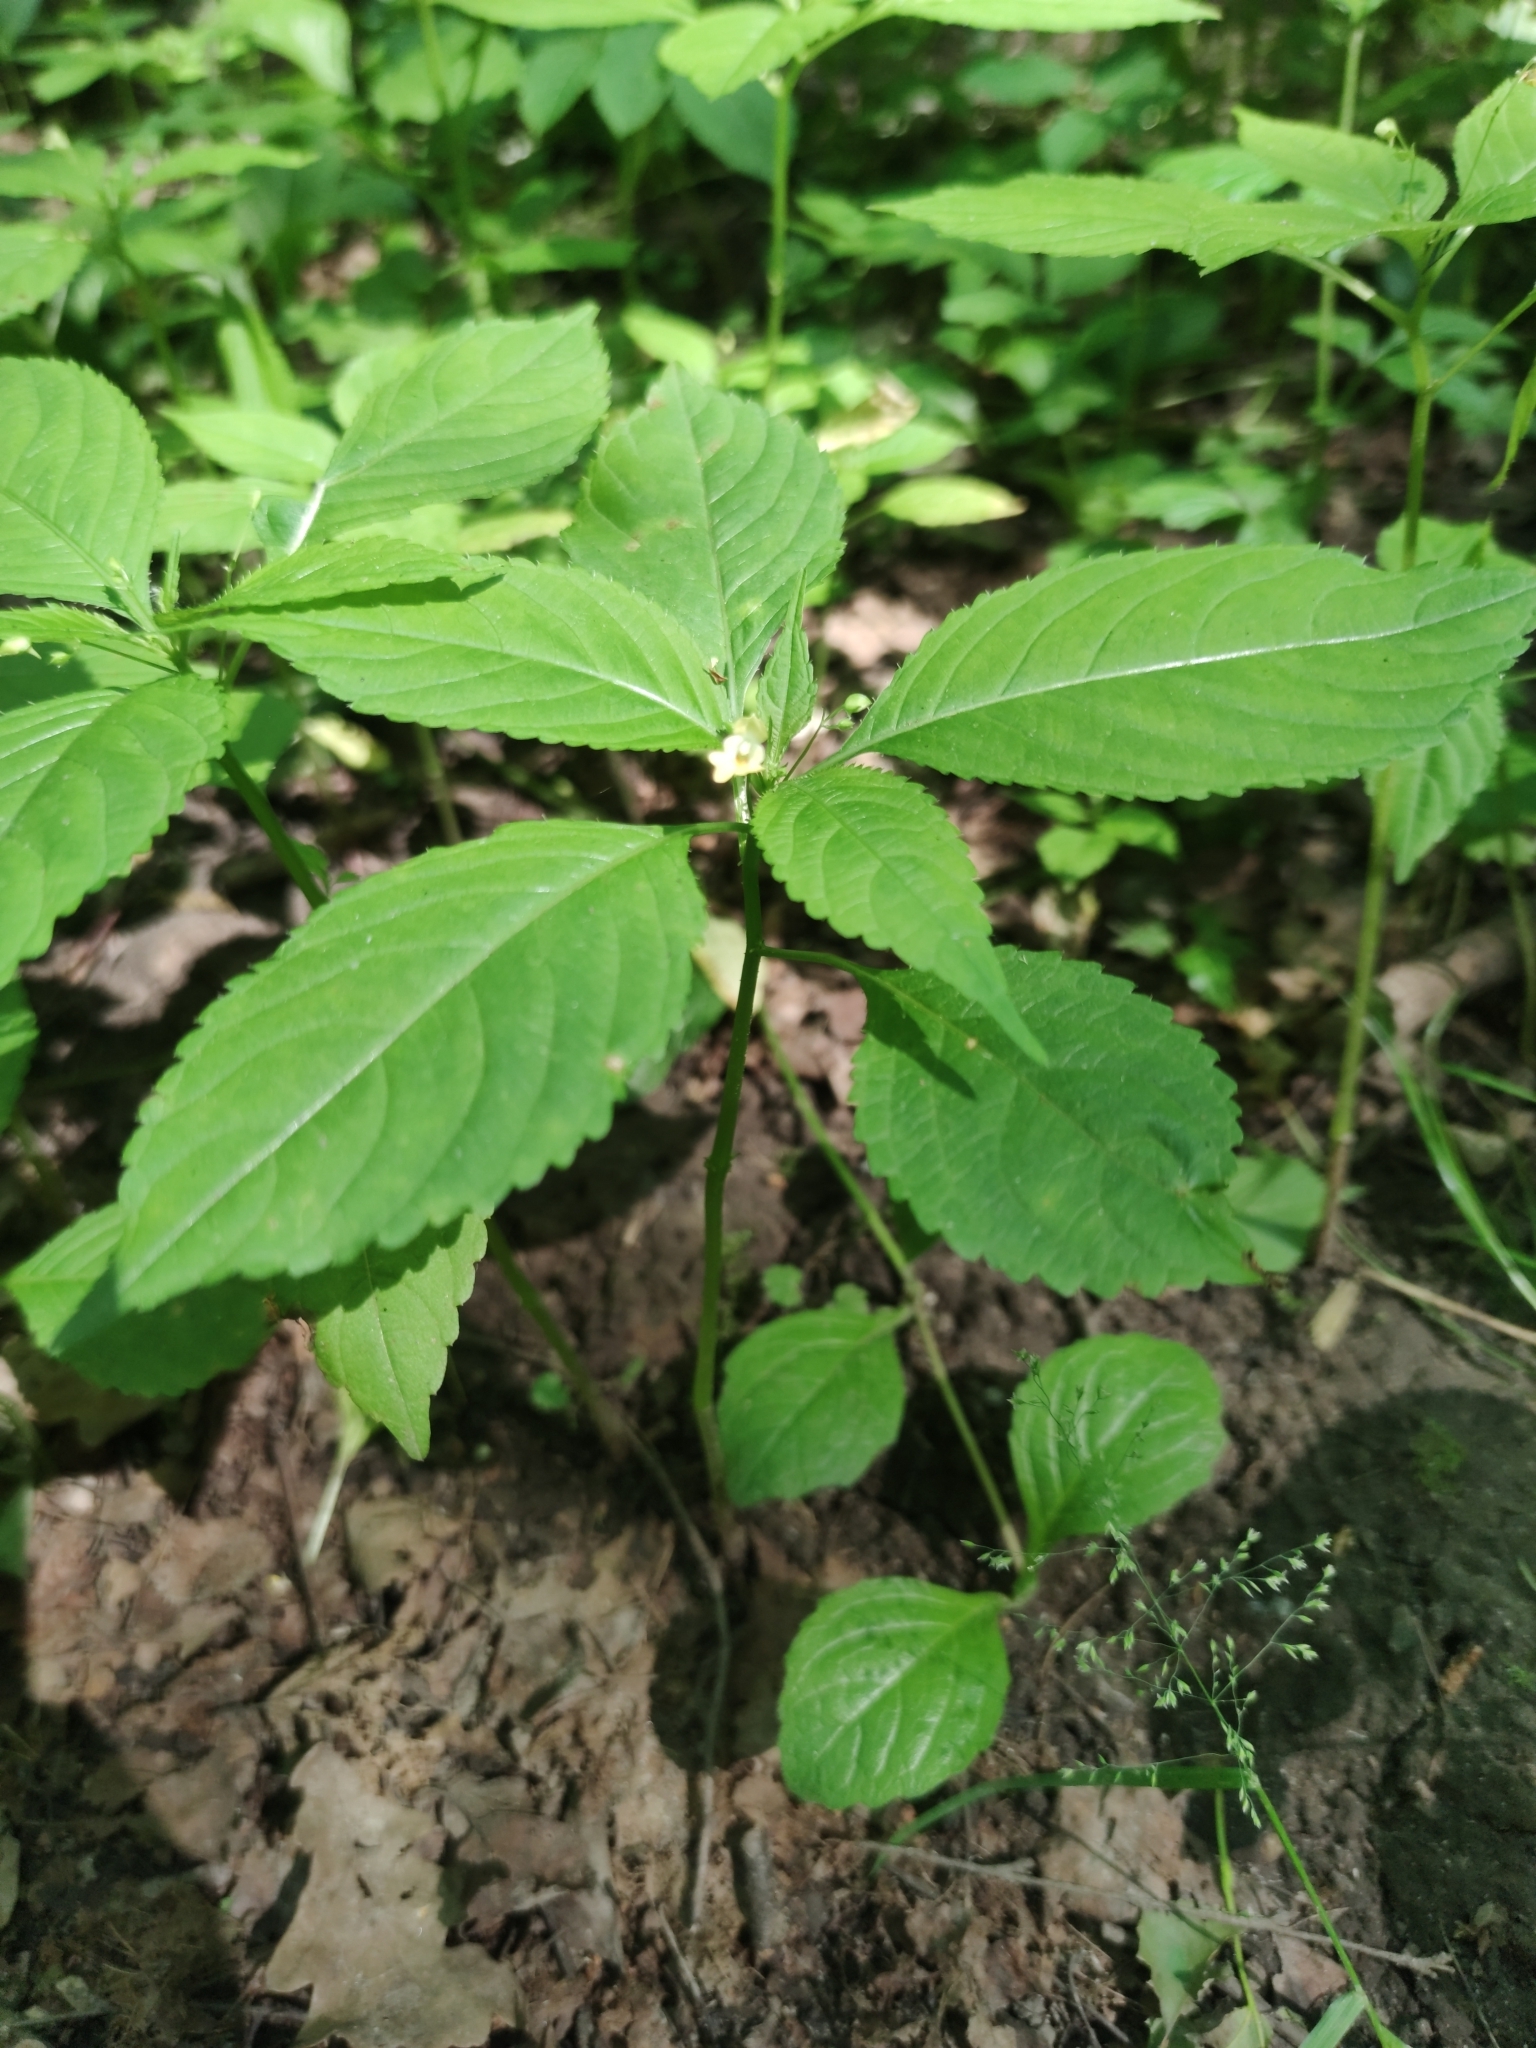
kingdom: Plantae
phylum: Tracheophyta
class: Magnoliopsida
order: Ericales
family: Balsaminaceae
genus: Impatiens
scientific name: Impatiens parviflora
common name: Small balsam
